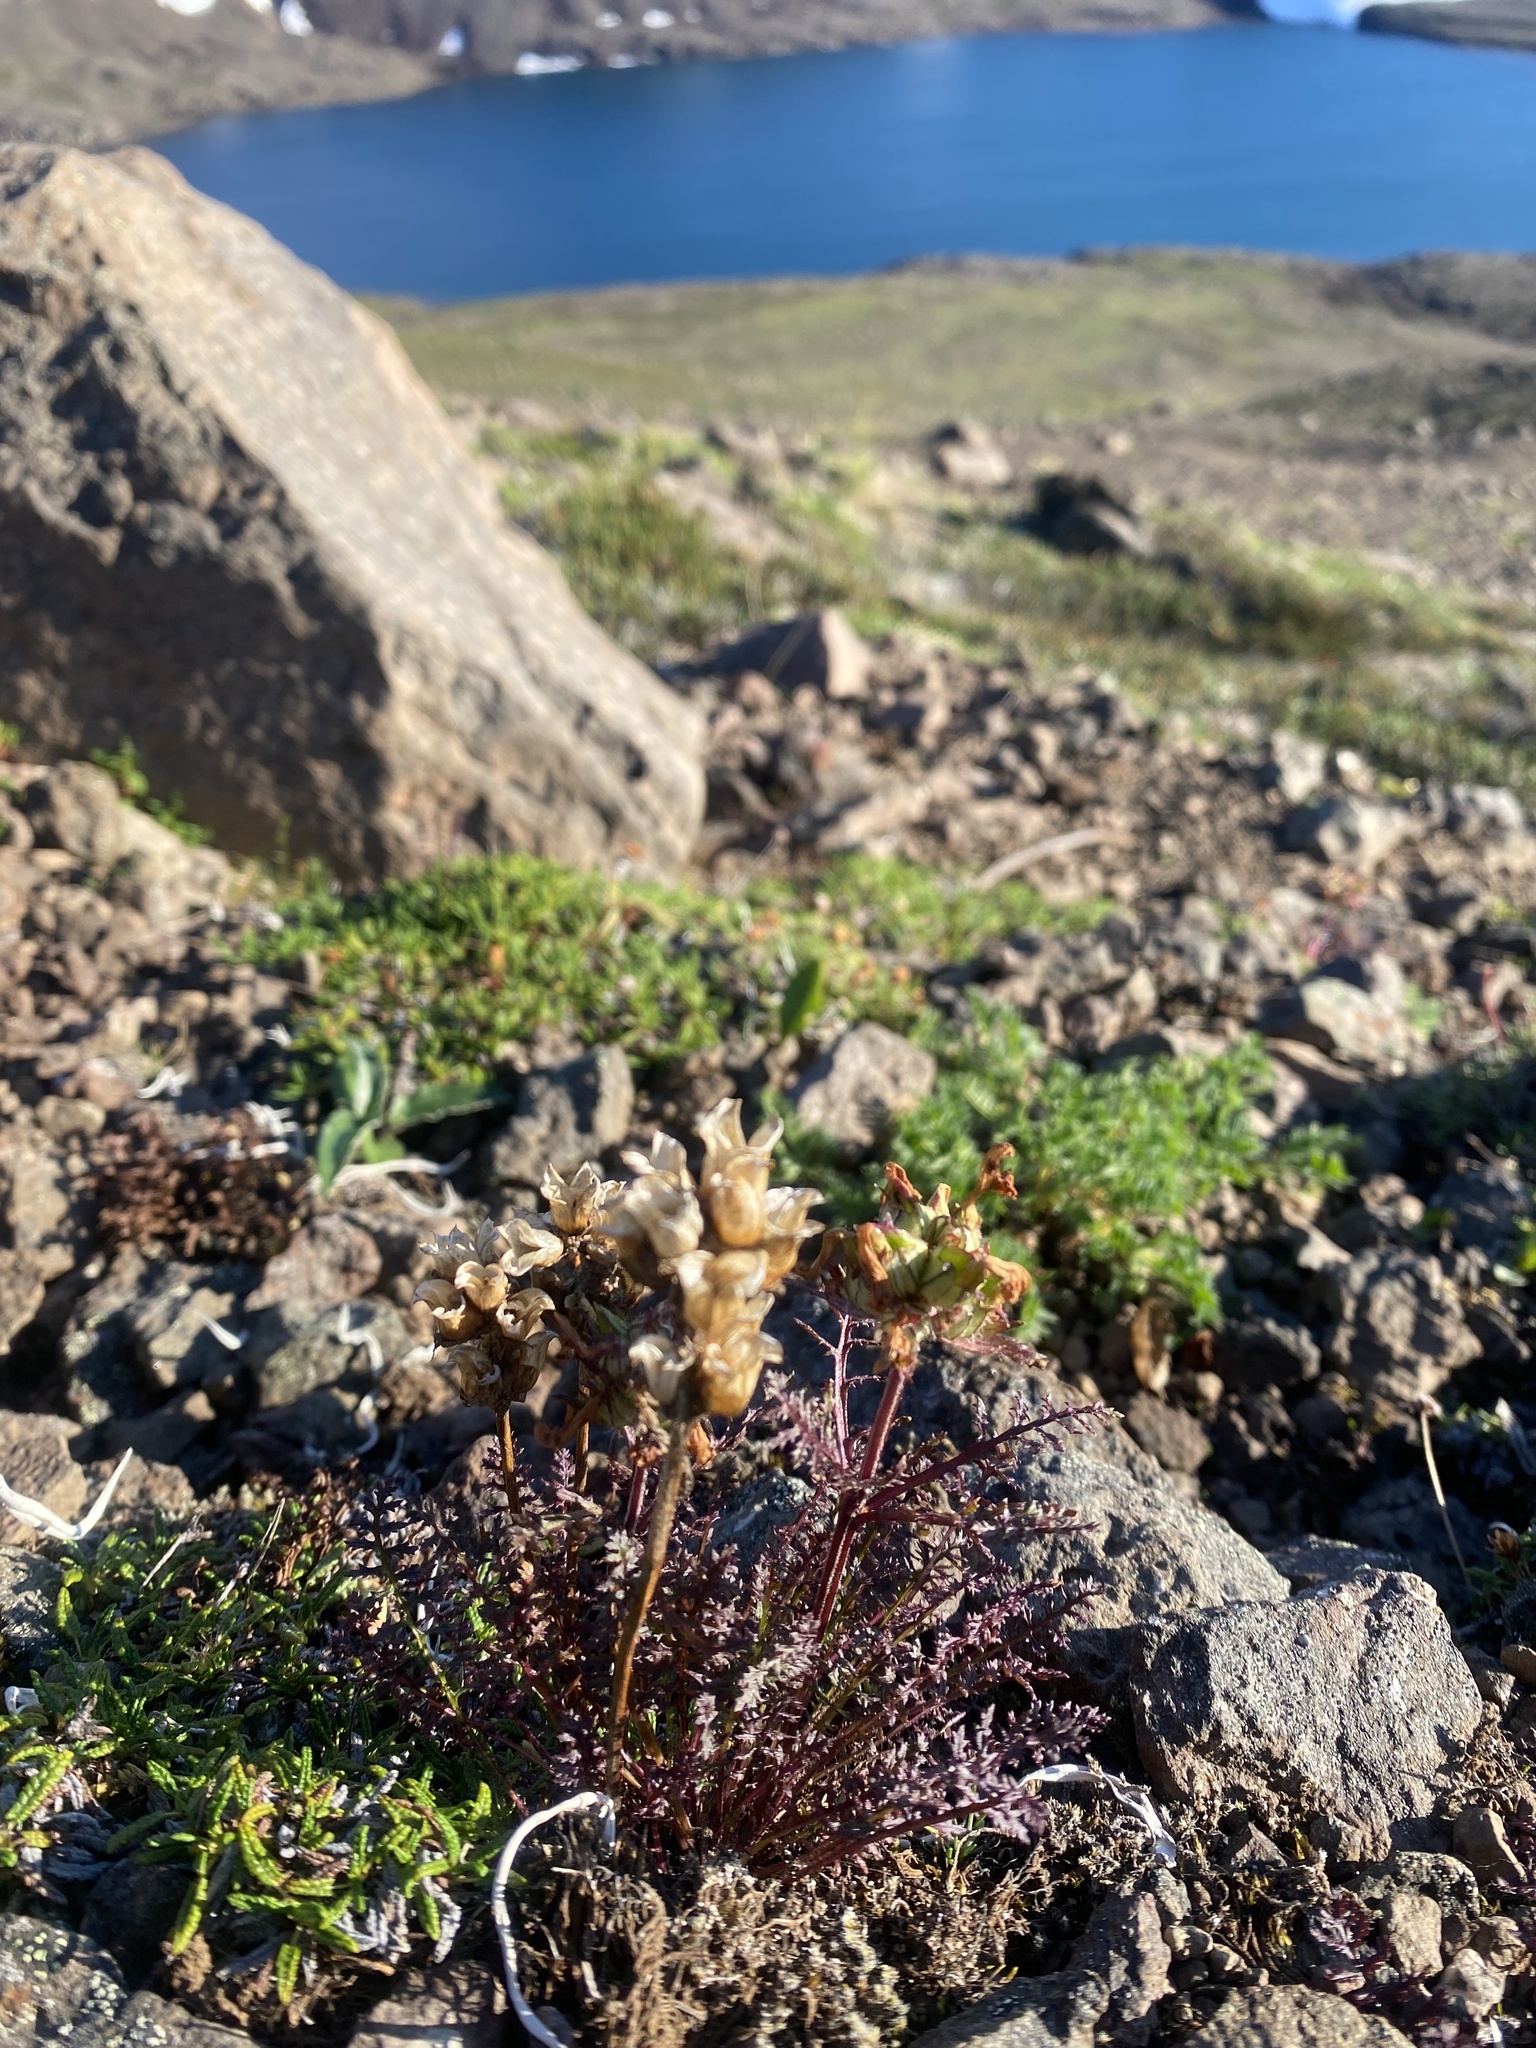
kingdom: Plantae
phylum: Tracheophyta
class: Magnoliopsida
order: Lamiales
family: Orobanchaceae
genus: Pedicularis
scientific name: Pedicularis amoena
